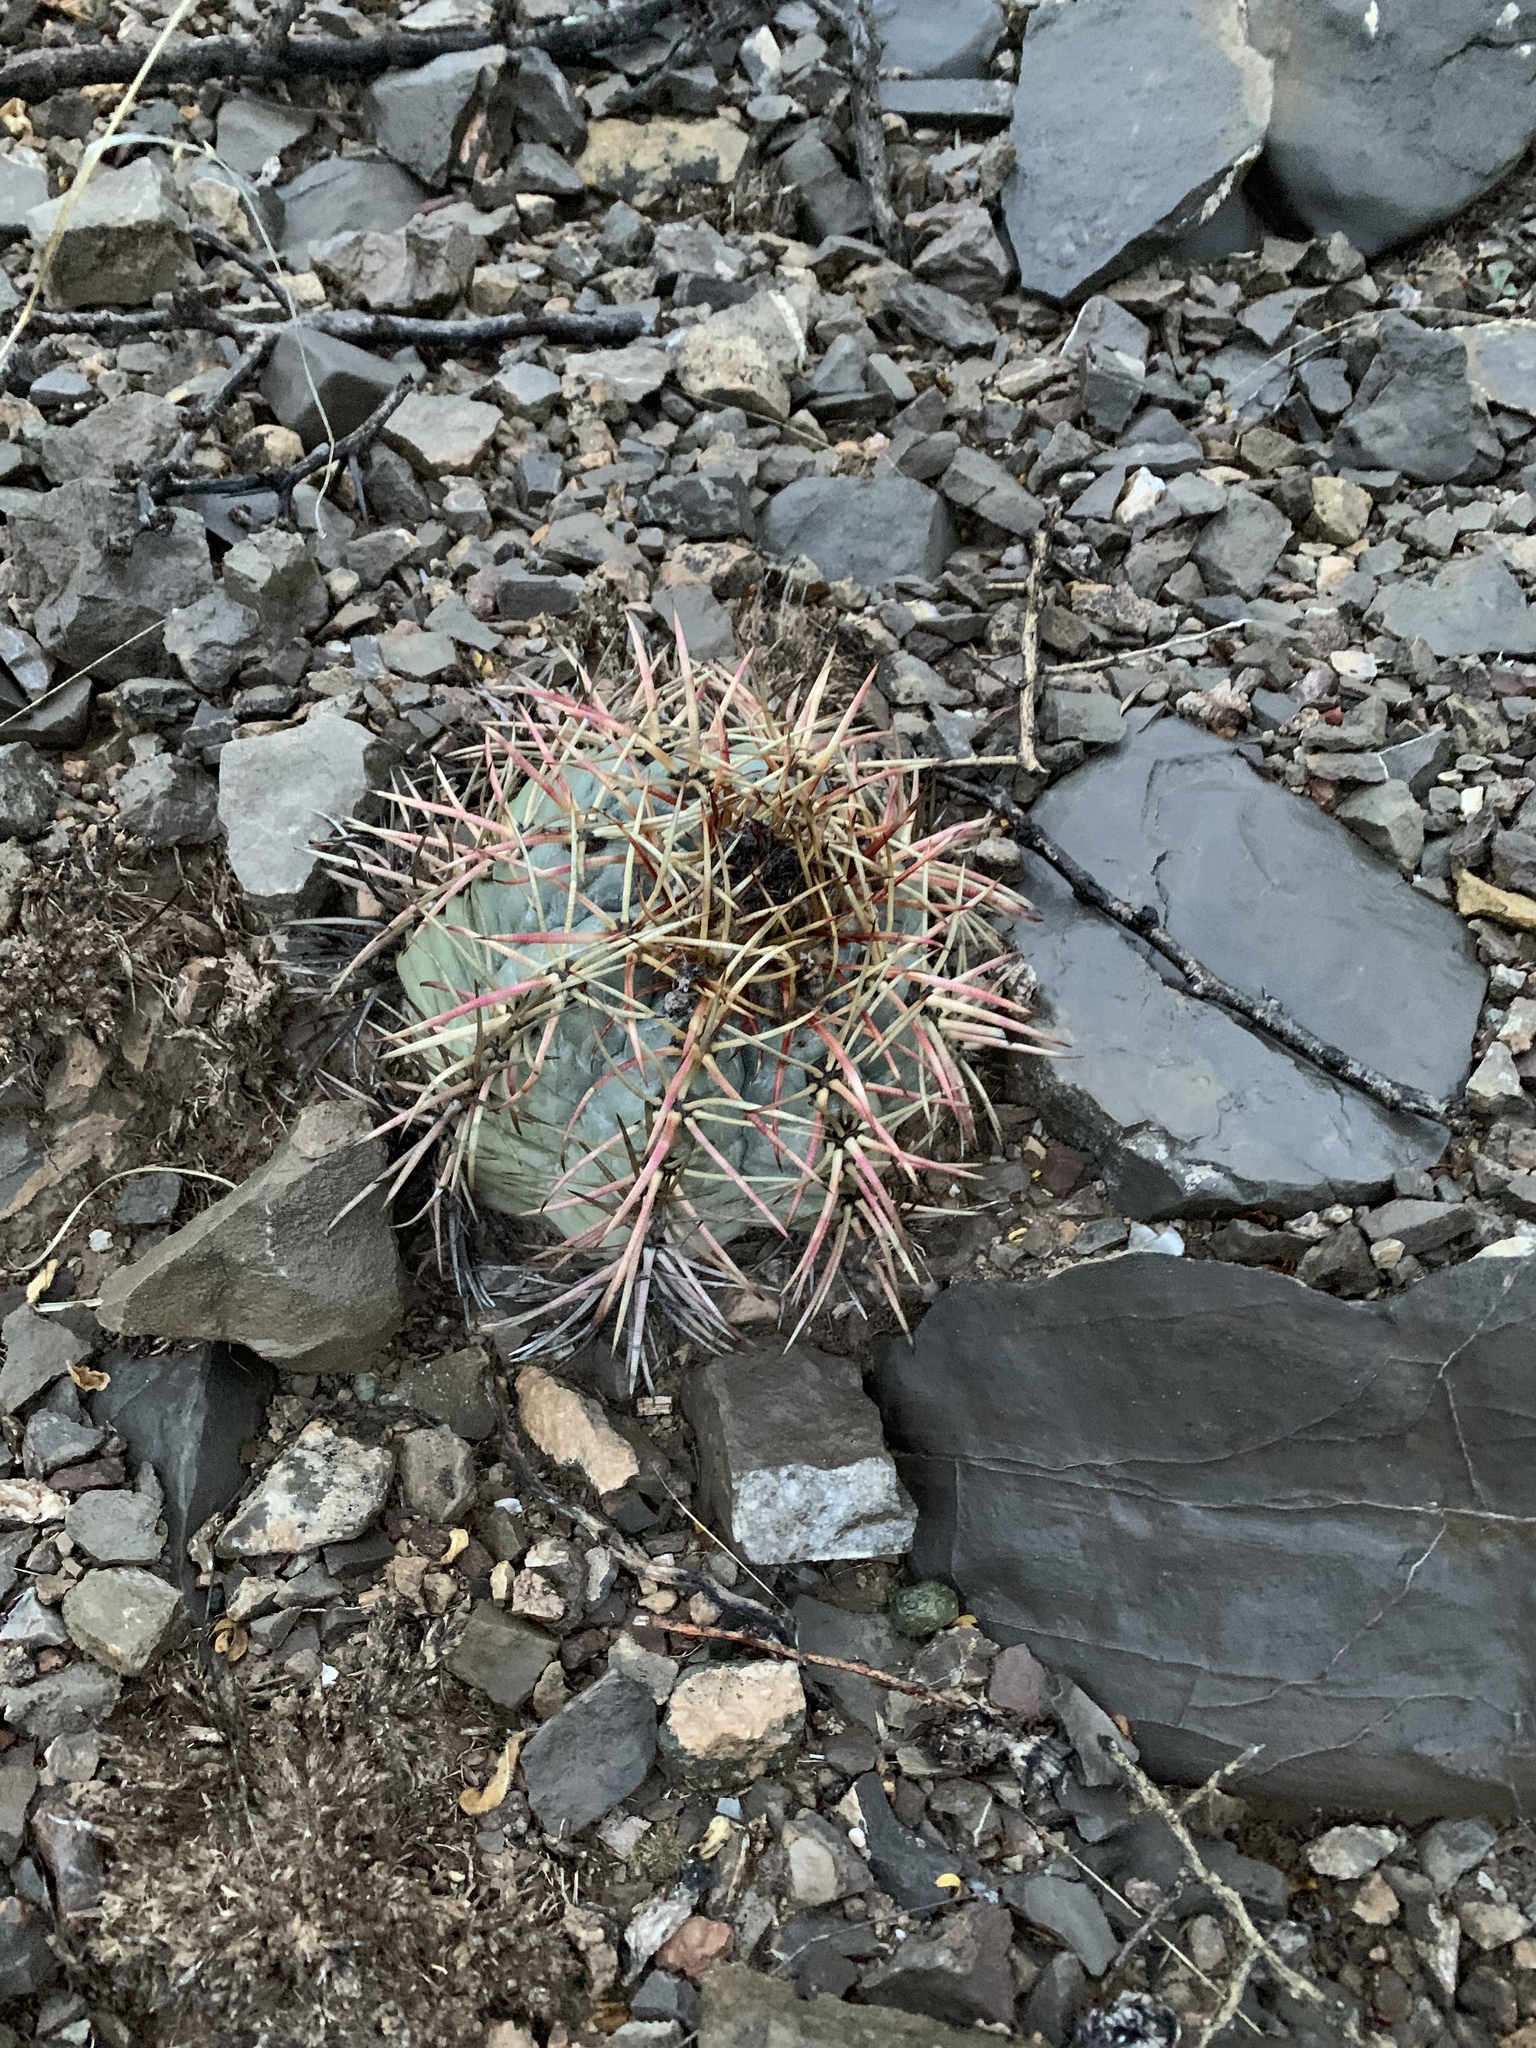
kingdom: Plantae
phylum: Tracheophyta
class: Magnoliopsida
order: Caryophyllales
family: Cactaceae
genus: Echinocactus
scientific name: Echinocactus horizonthalonius
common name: Devilshead
